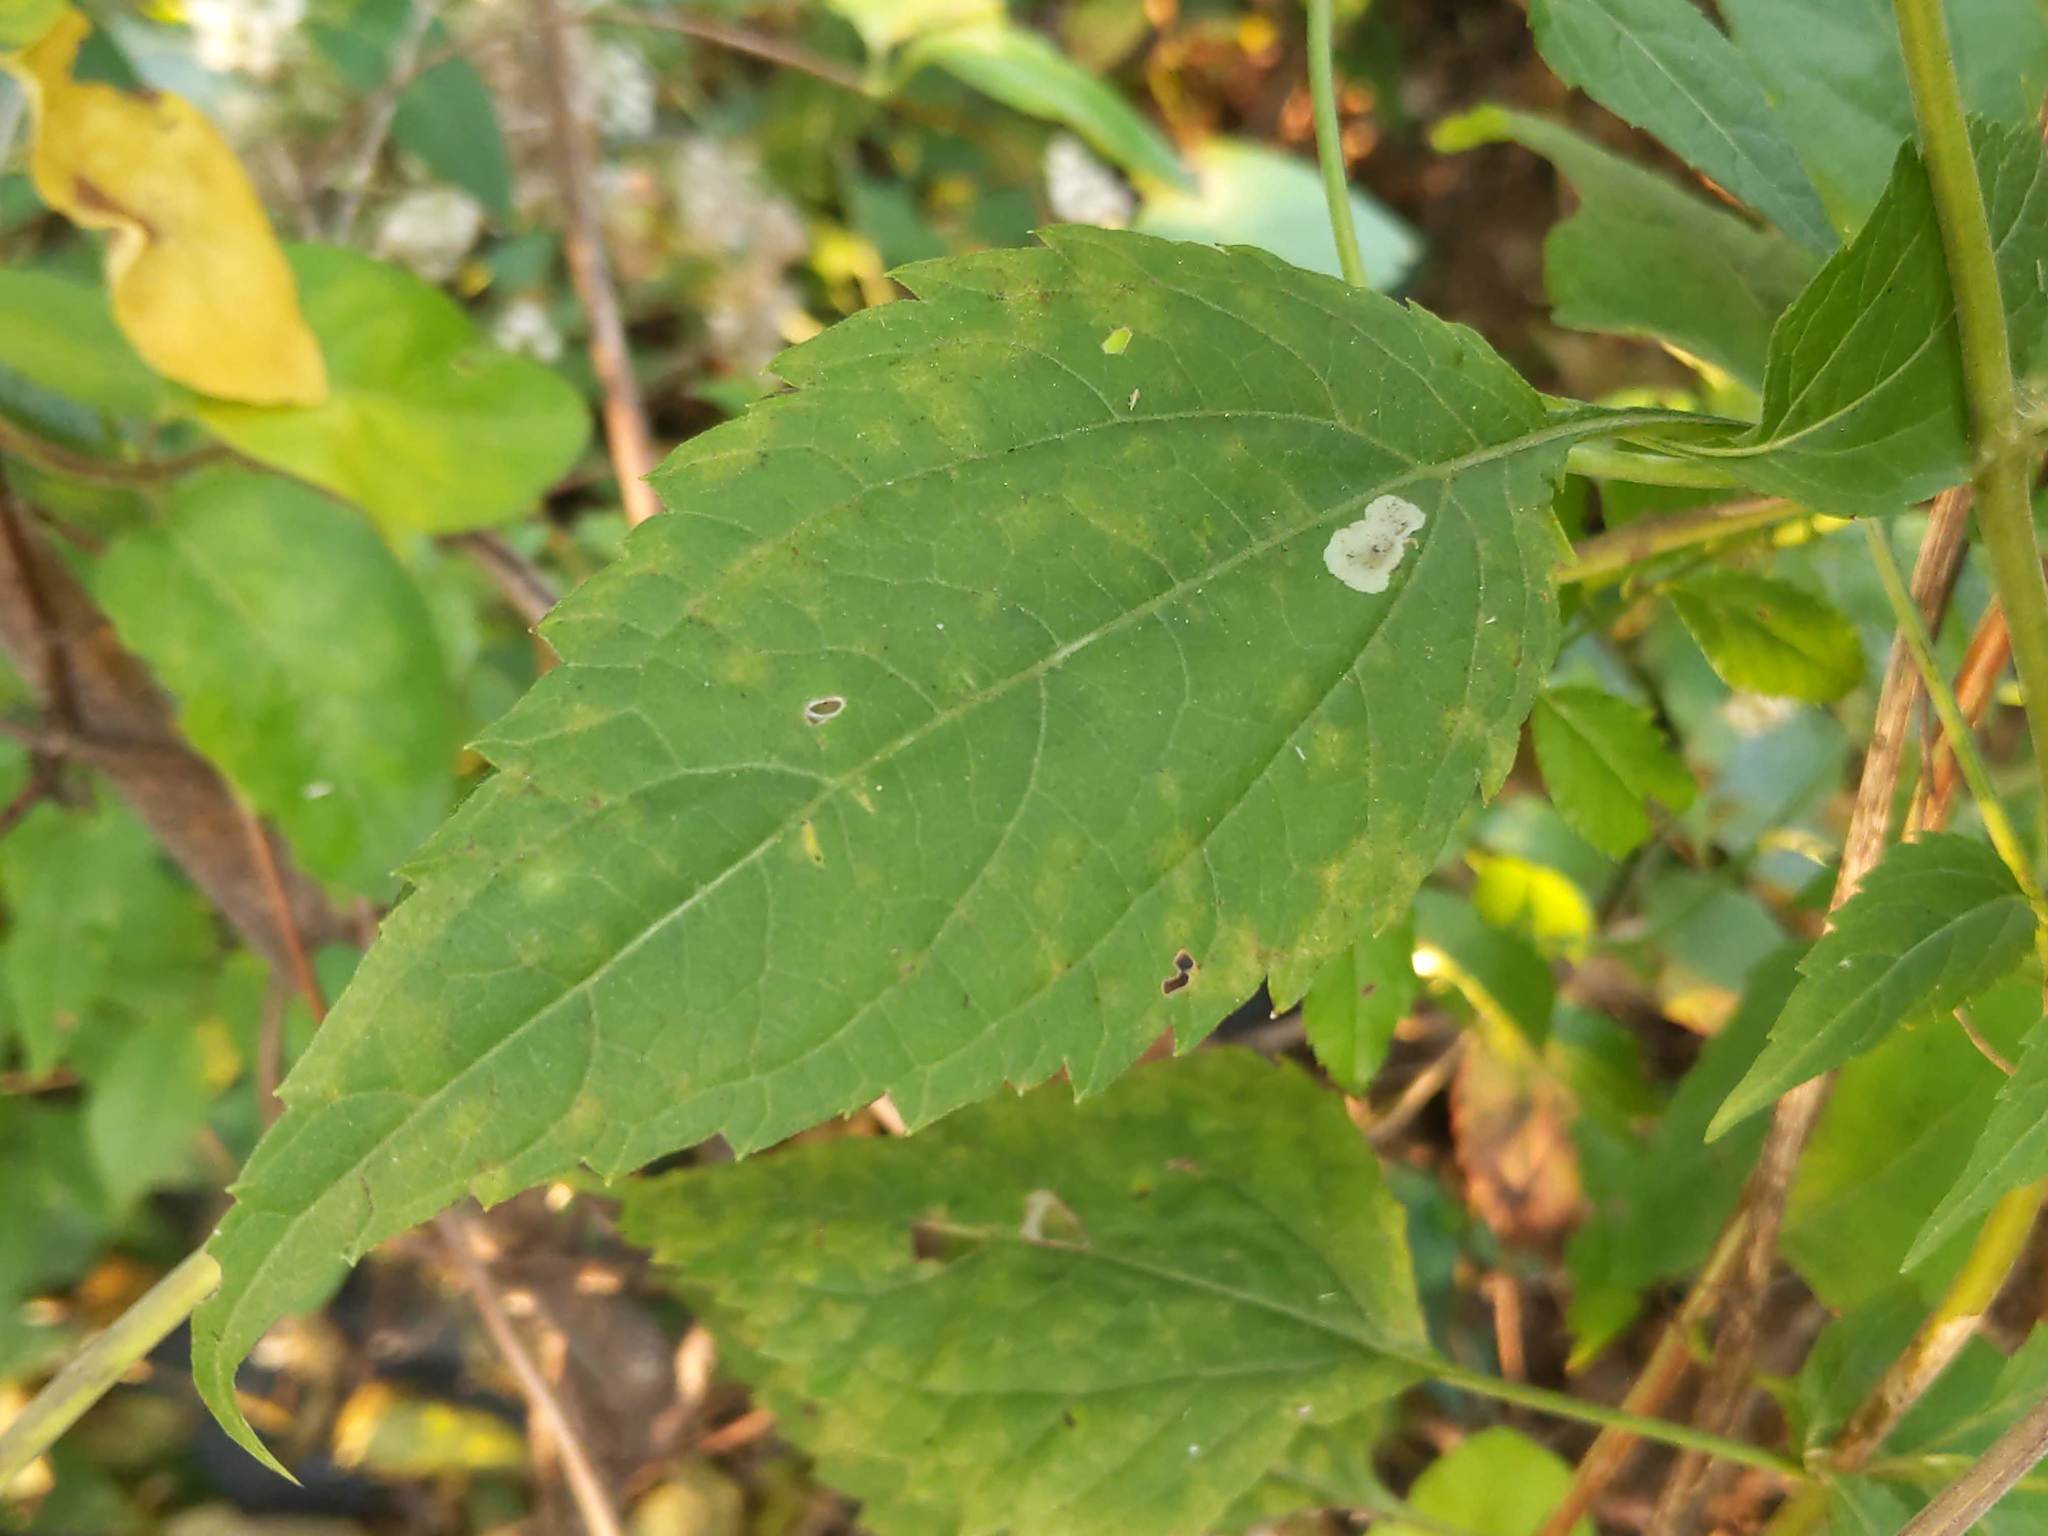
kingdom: Animalia
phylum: Arthropoda
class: Insecta
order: Diptera
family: Agromyzidae
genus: Calycomyza
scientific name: Calycomyza eupatoriphaga
